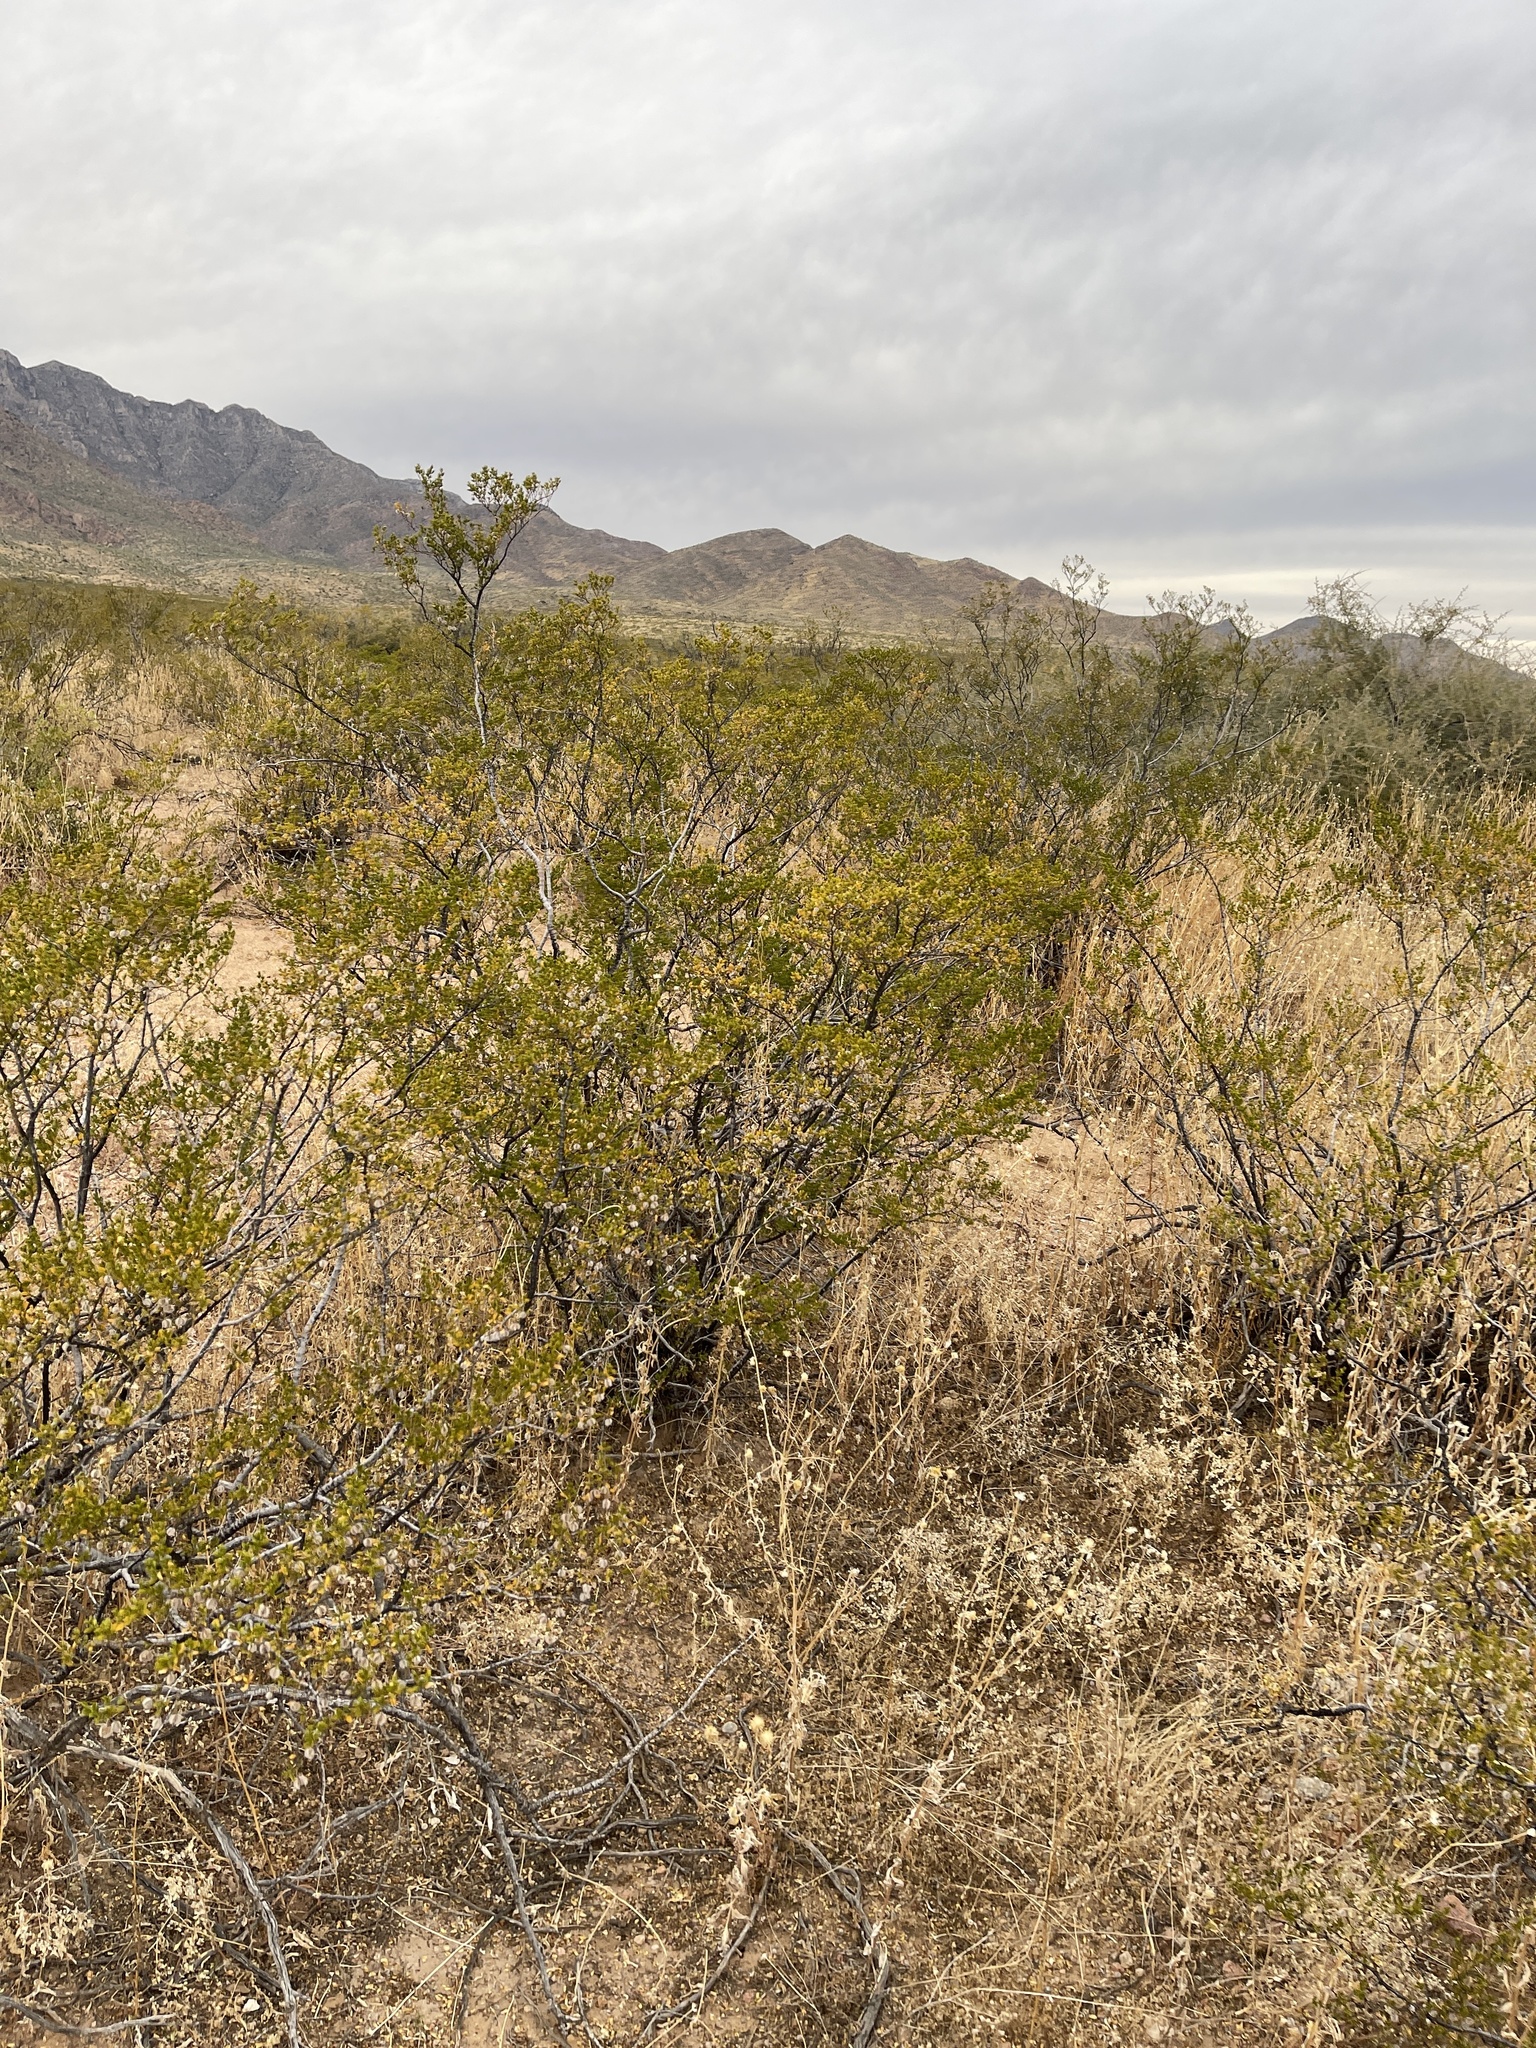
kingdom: Plantae
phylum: Tracheophyta
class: Magnoliopsida
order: Zygophyllales
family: Zygophyllaceae
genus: Larrea
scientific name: Larrea tridentata
